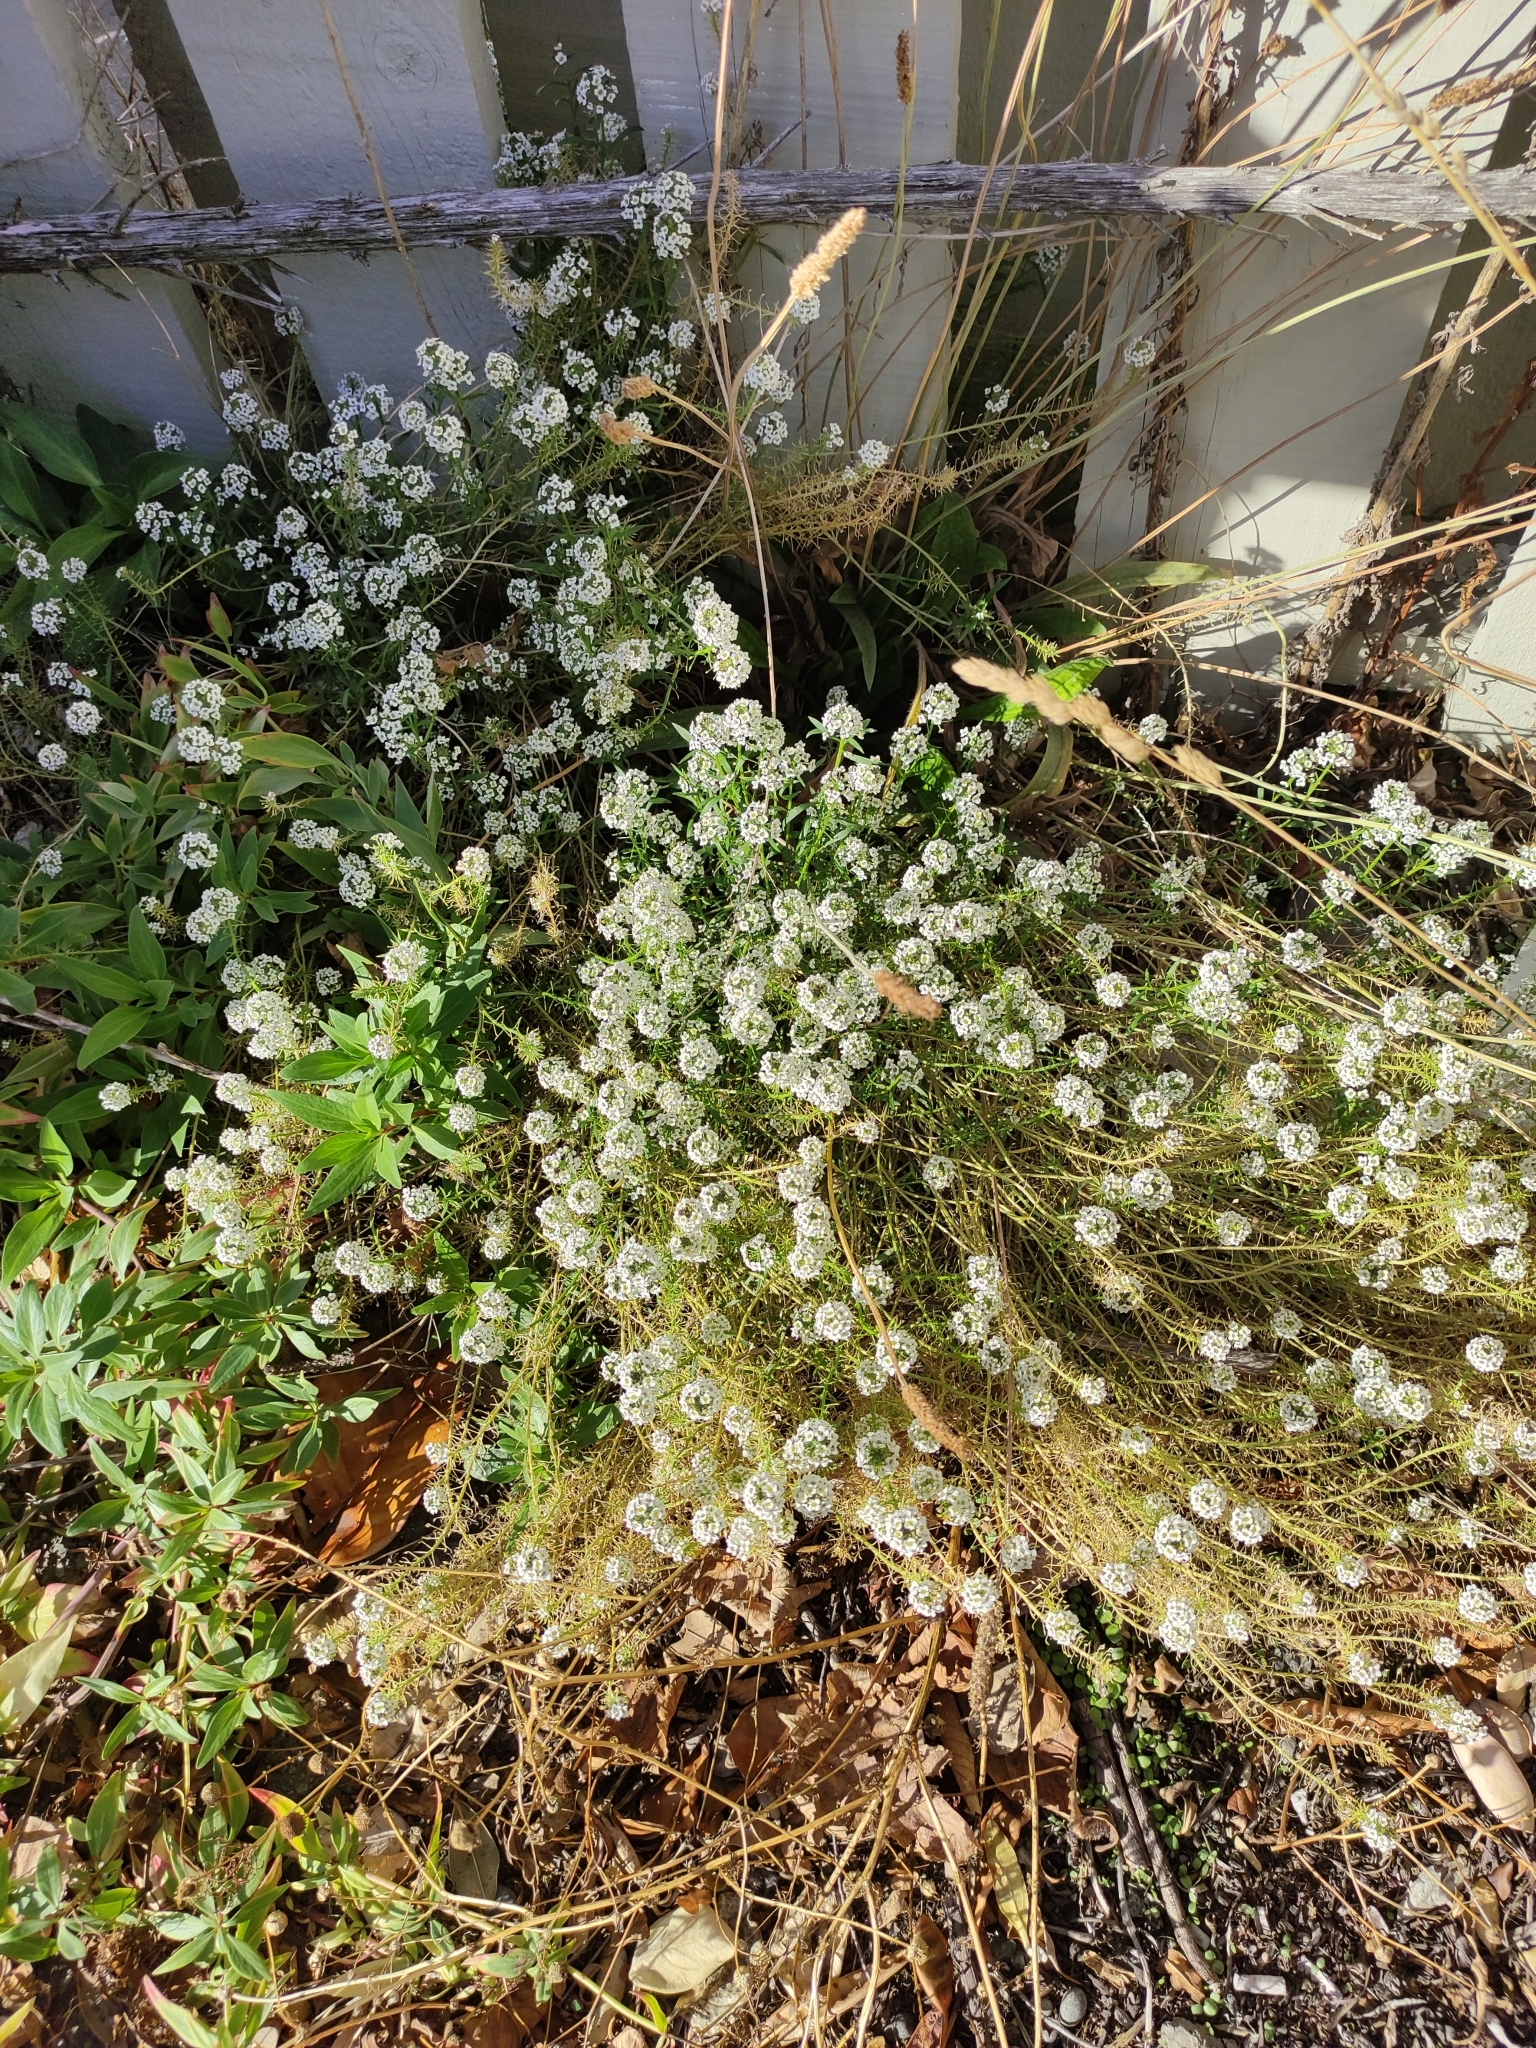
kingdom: Plantae
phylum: Tracheophyta
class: Magnoliopsida
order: Brassicales
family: Brassicaceae
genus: Lobularia
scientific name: Lobularia maritima
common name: Sweet alison
